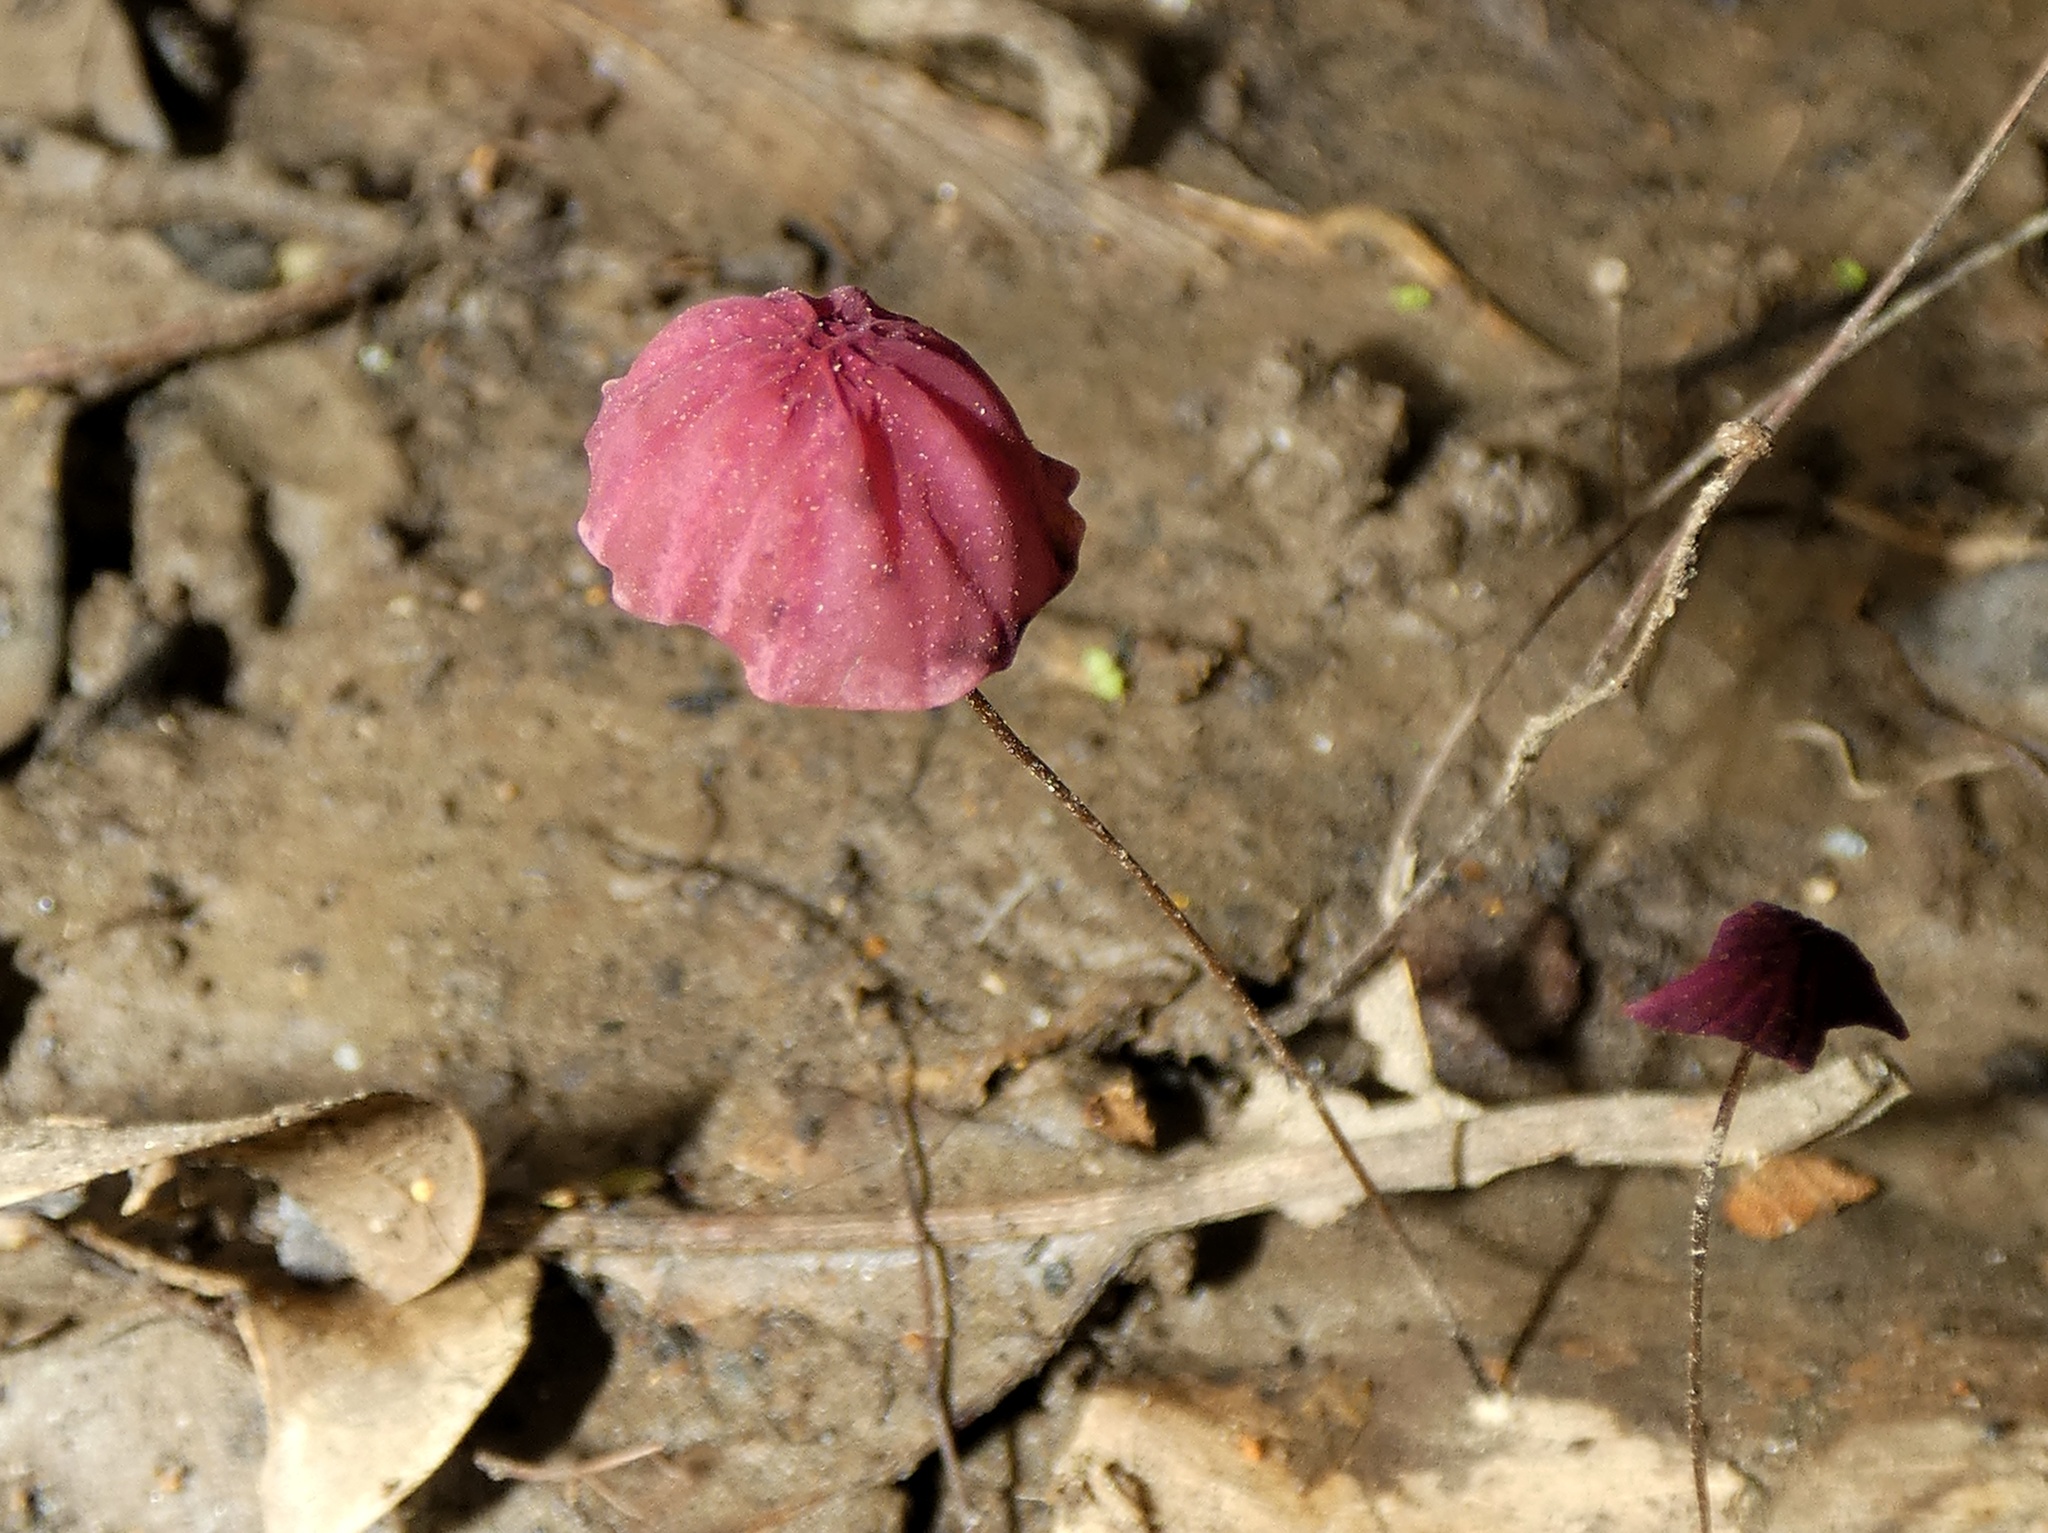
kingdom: Fungi
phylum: Basidiomycota
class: Agaricomycetes
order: Agaricales
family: Marasmiaceae
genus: Marasmius
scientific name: Marasmius haematocephalus
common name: Purple pinwheel
